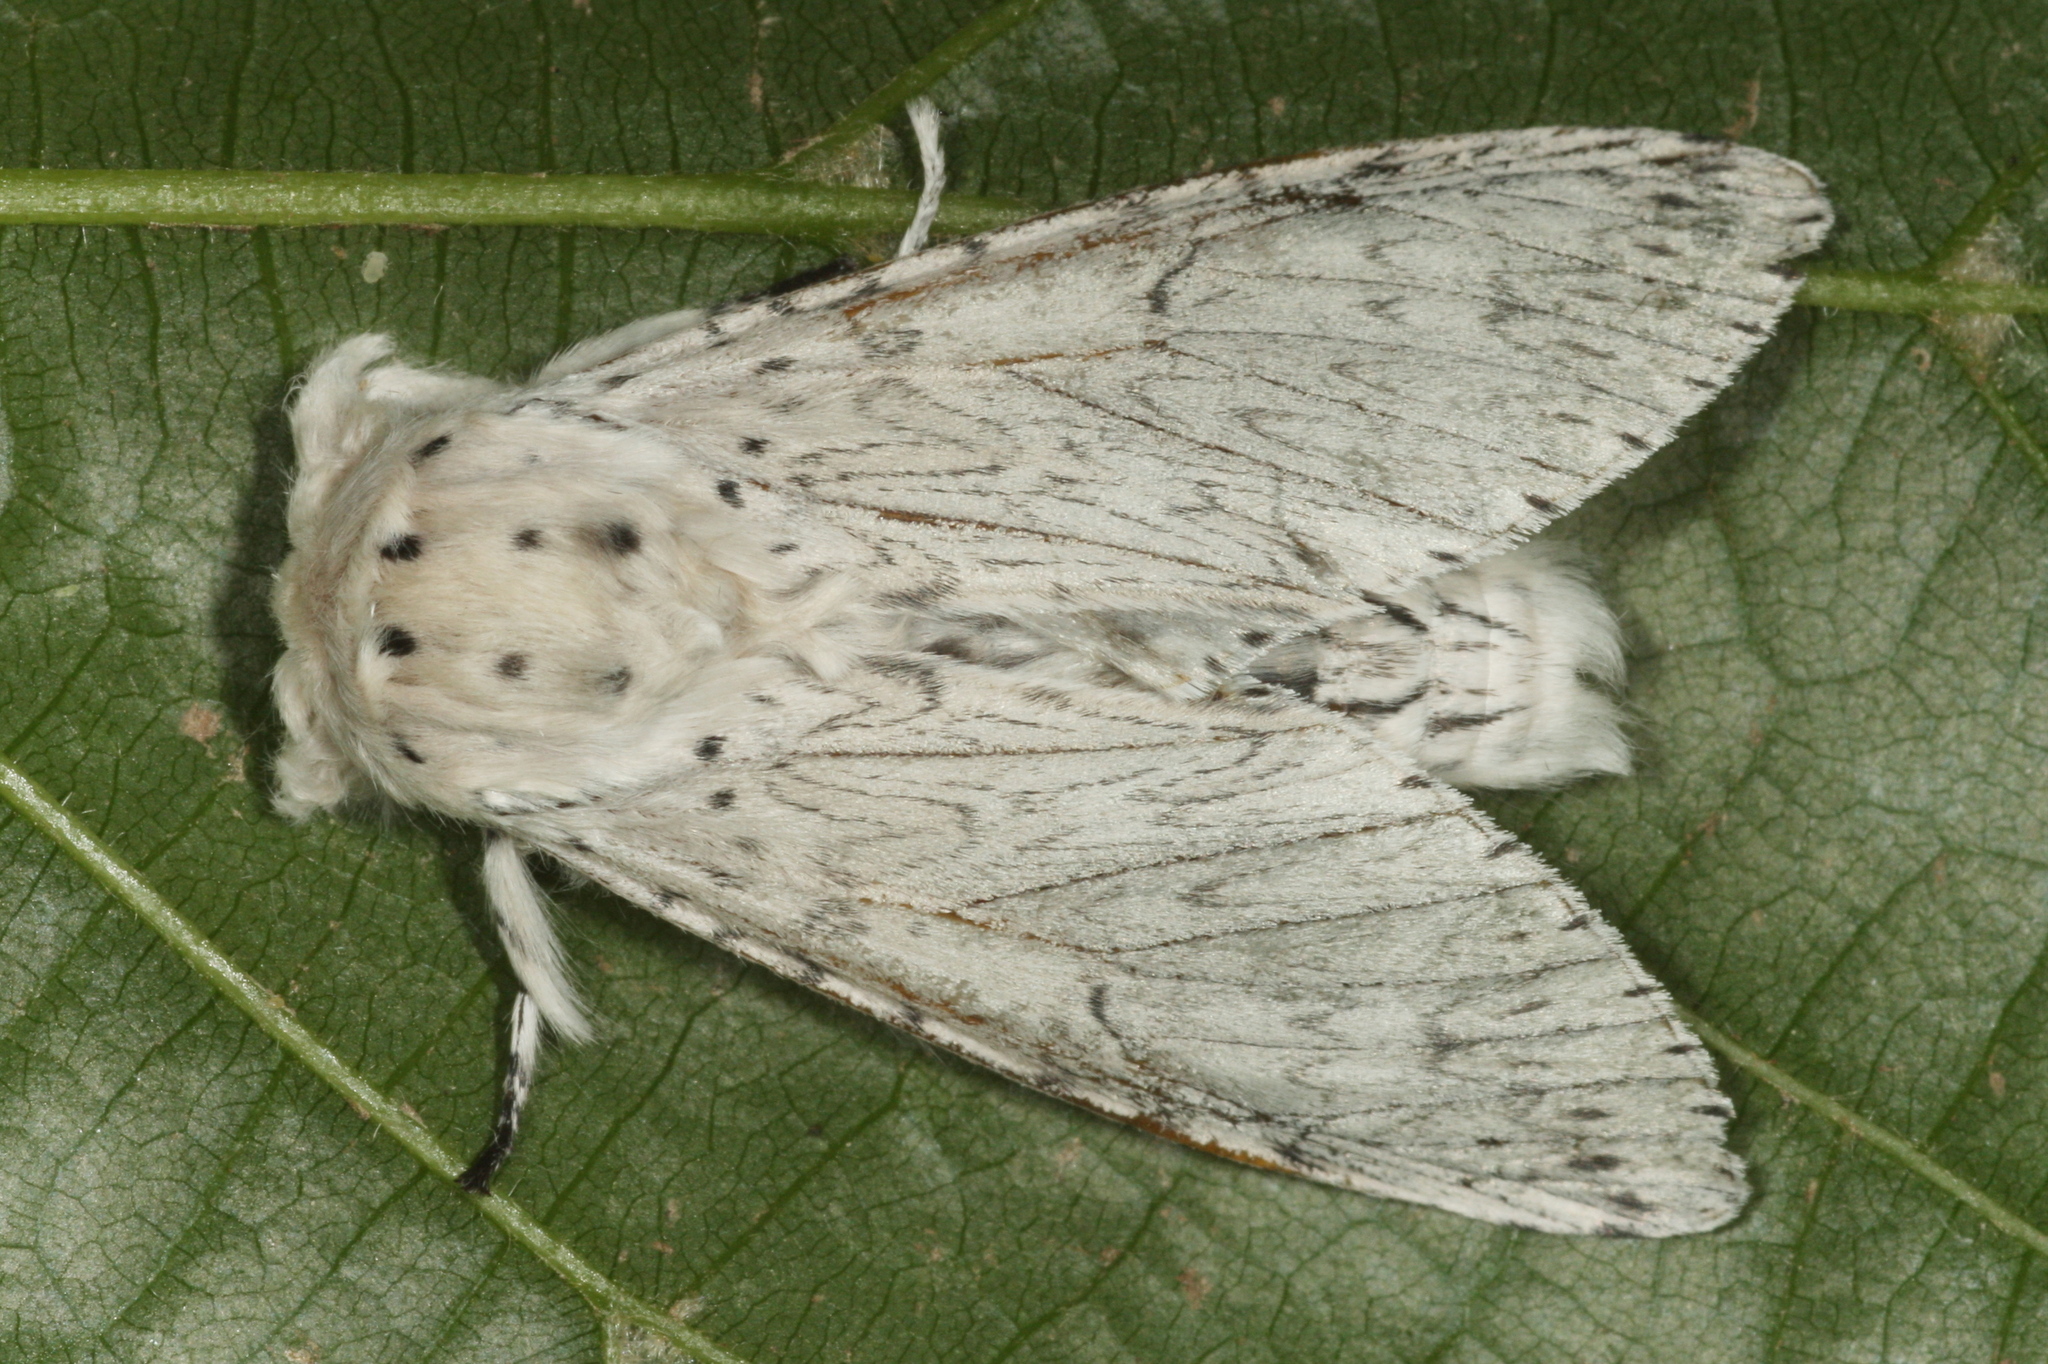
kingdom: Animalia
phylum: Arthropoda
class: Insecta
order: Lepidoptera
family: Notodontidae
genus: Cerura
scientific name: Cerura erminea
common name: Lesser puss moth
